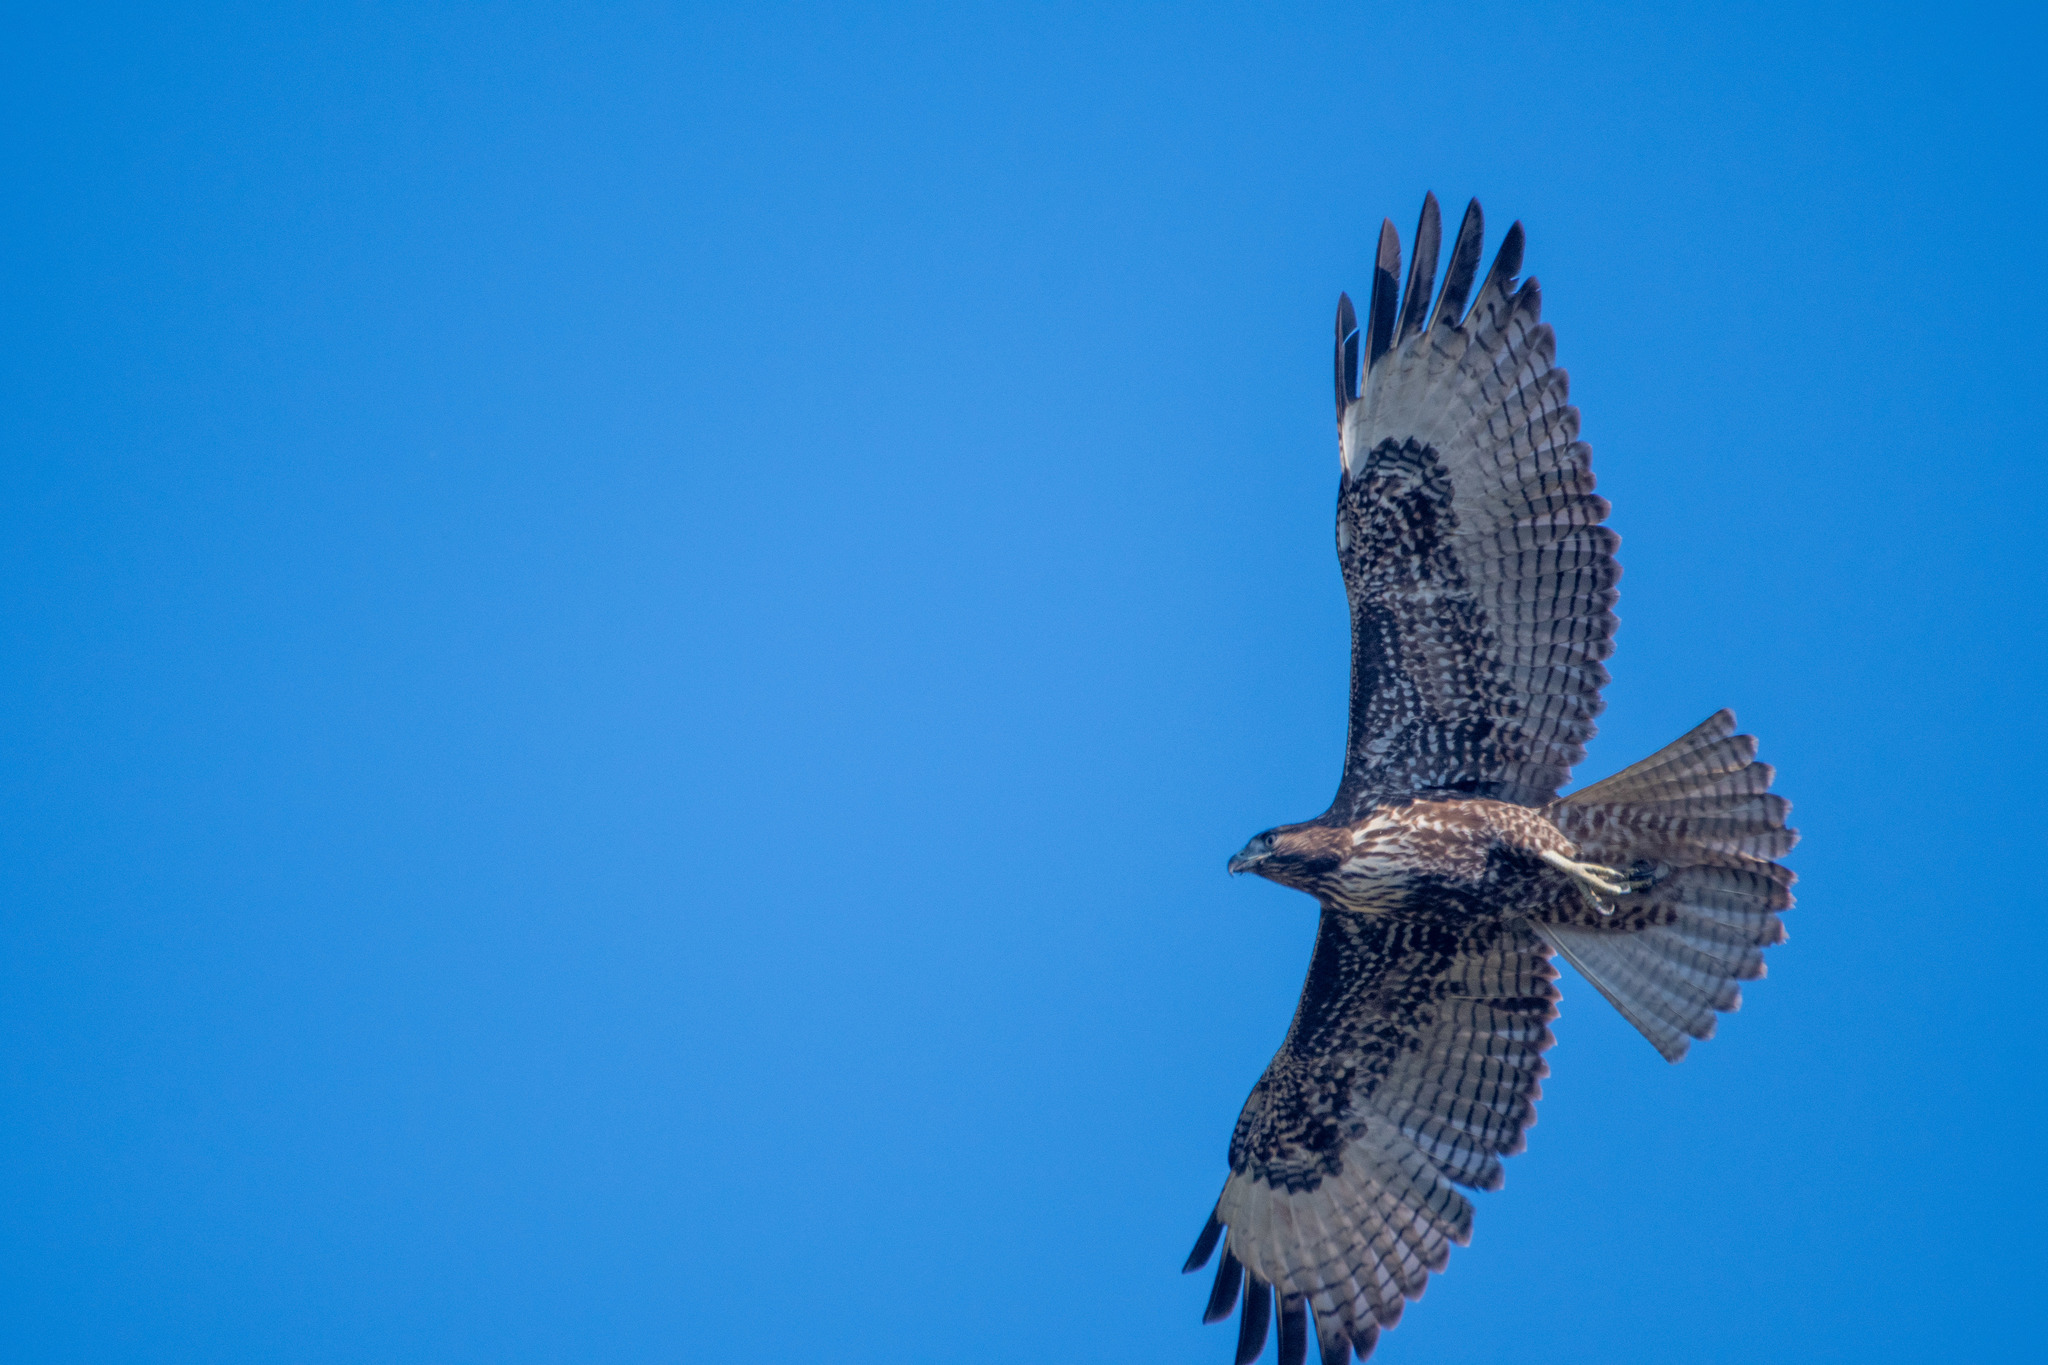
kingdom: Animalia
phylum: Chordata
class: Aves
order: Accipitriformes
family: Accipitridae
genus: Buteo
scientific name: Buteo jamaicensis
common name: Red-tailed hawk
